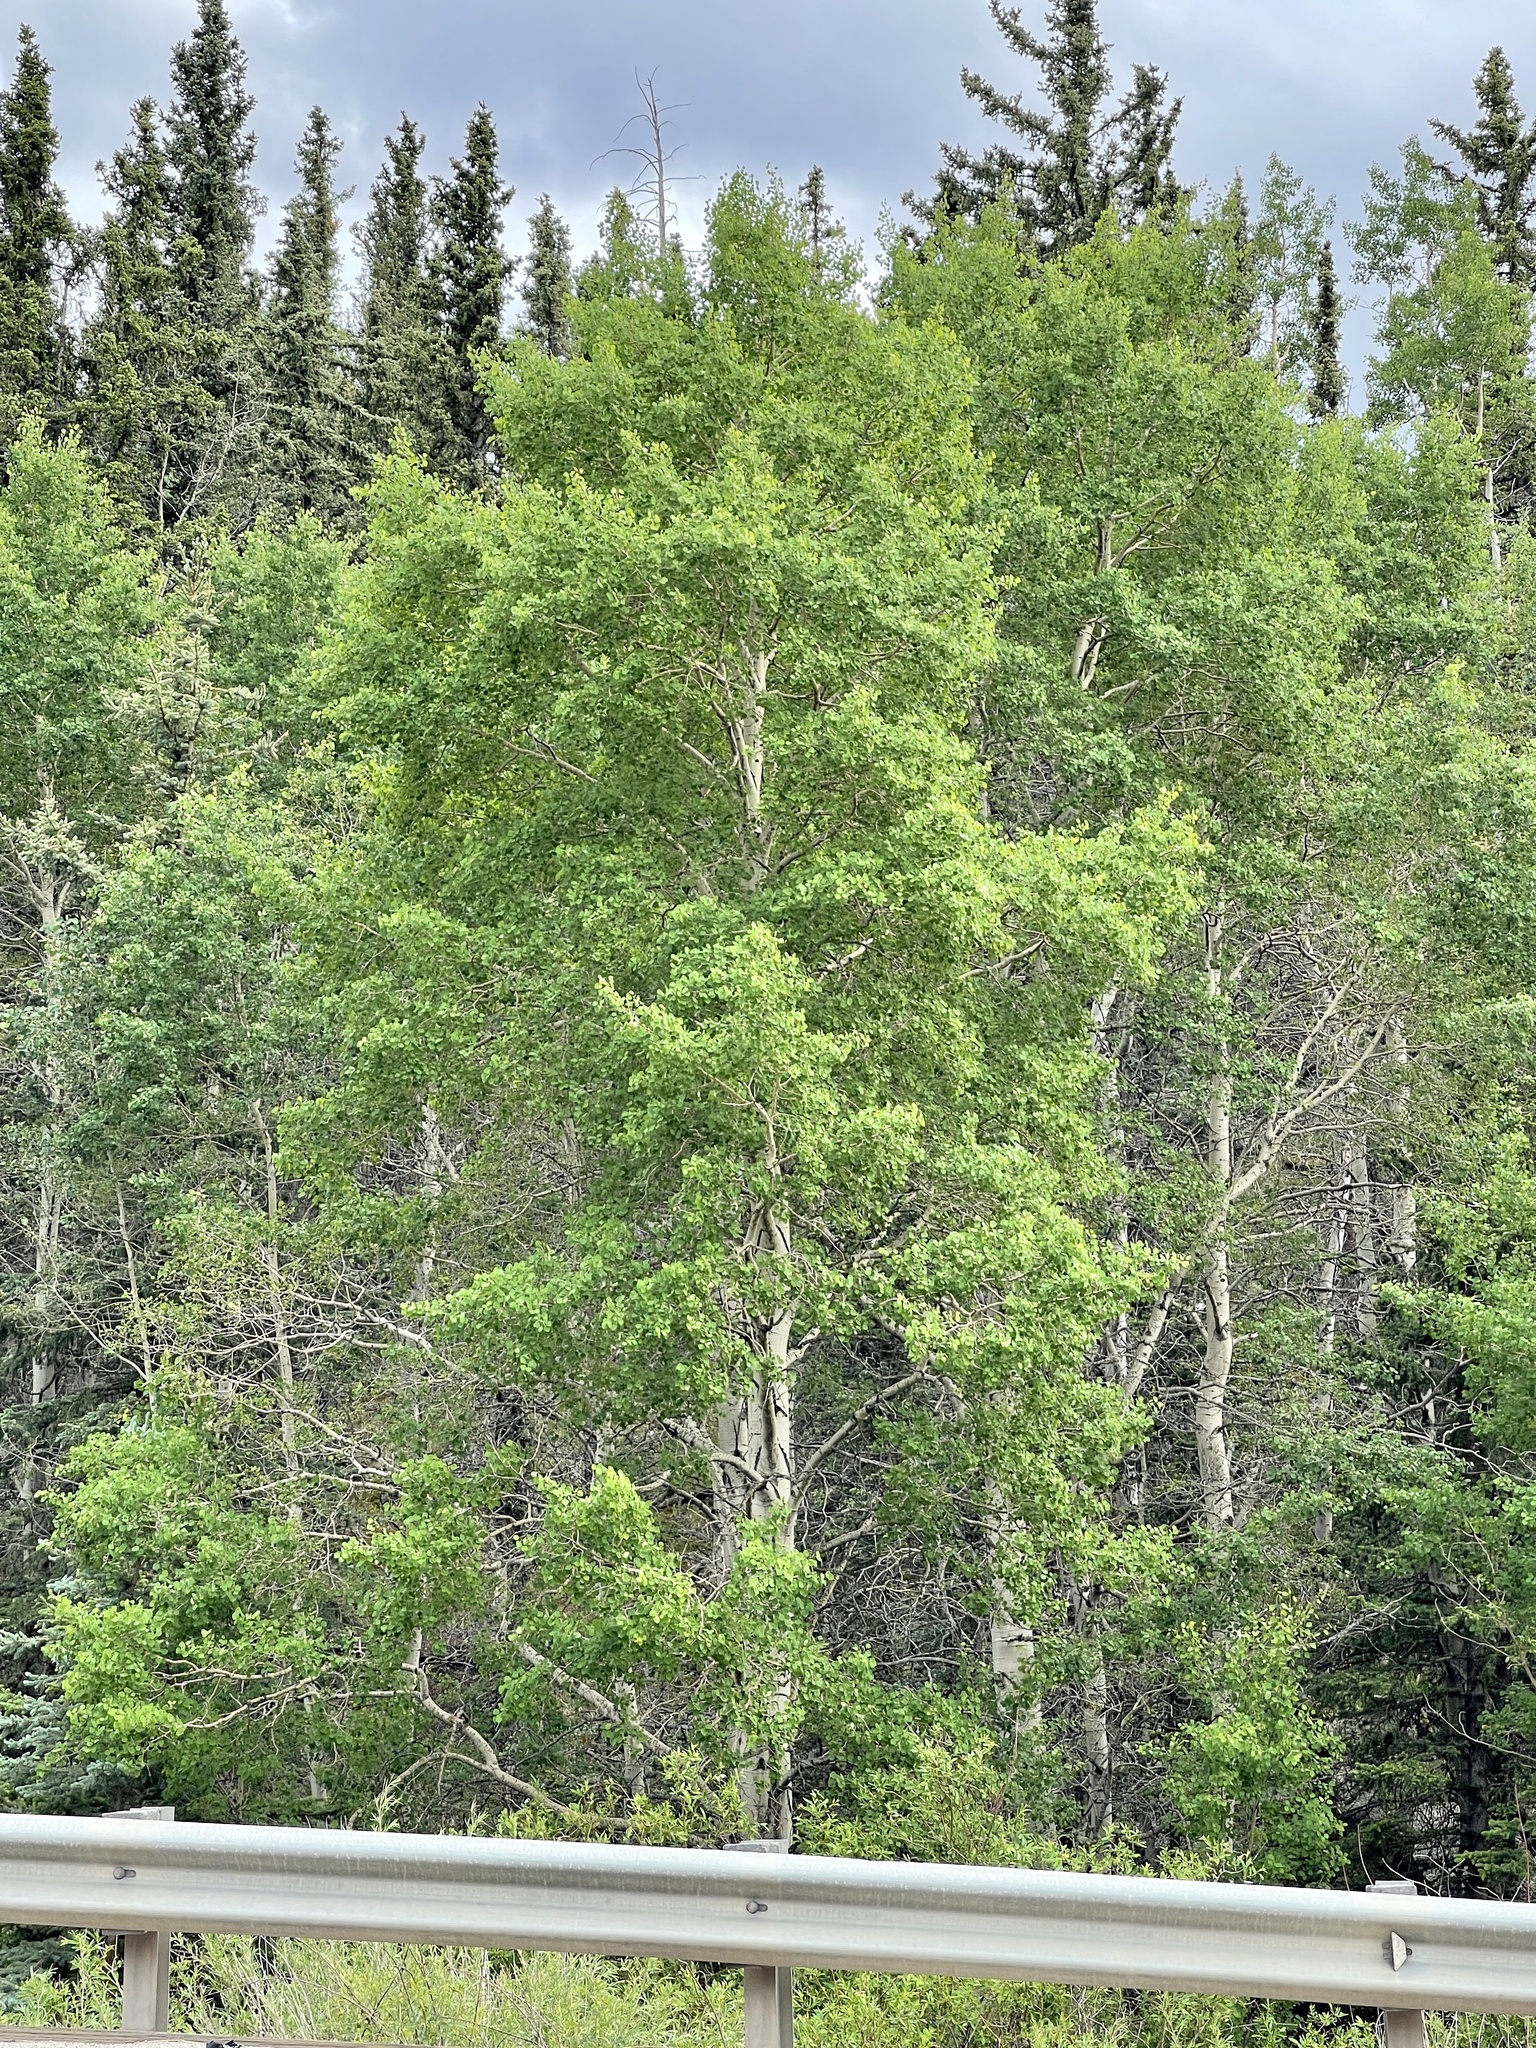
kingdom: Plantae
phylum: Tracheophyta
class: Magnoliopsida
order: Malpighiales
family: Salicaceae
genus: Populus
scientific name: Populus tremuloides
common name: Quaking aspen
